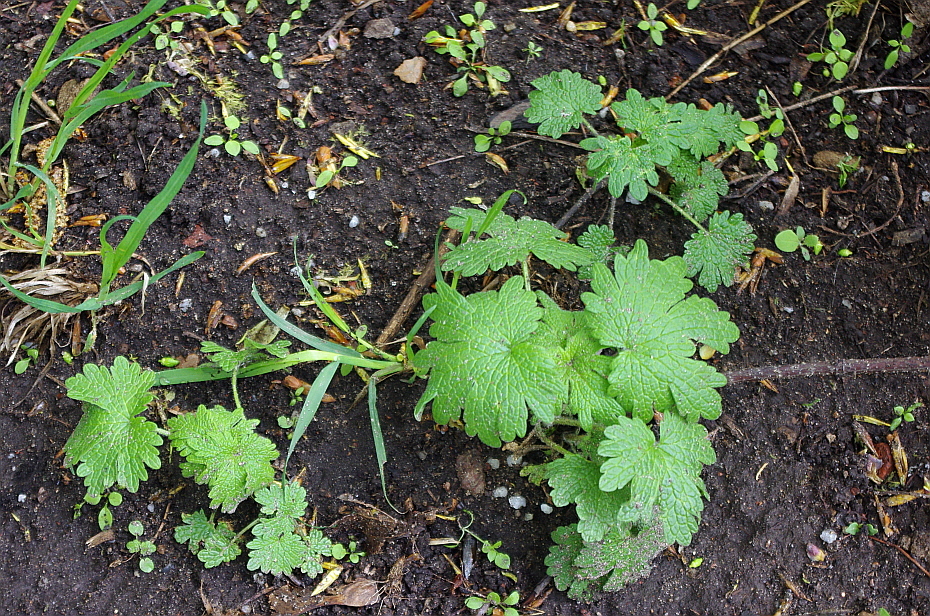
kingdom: Plantae
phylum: Tracheophyta
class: Magnoliopsida
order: Lamiales
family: Lamiaceae
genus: Leonurus
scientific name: Leonurus quinquelobatus
